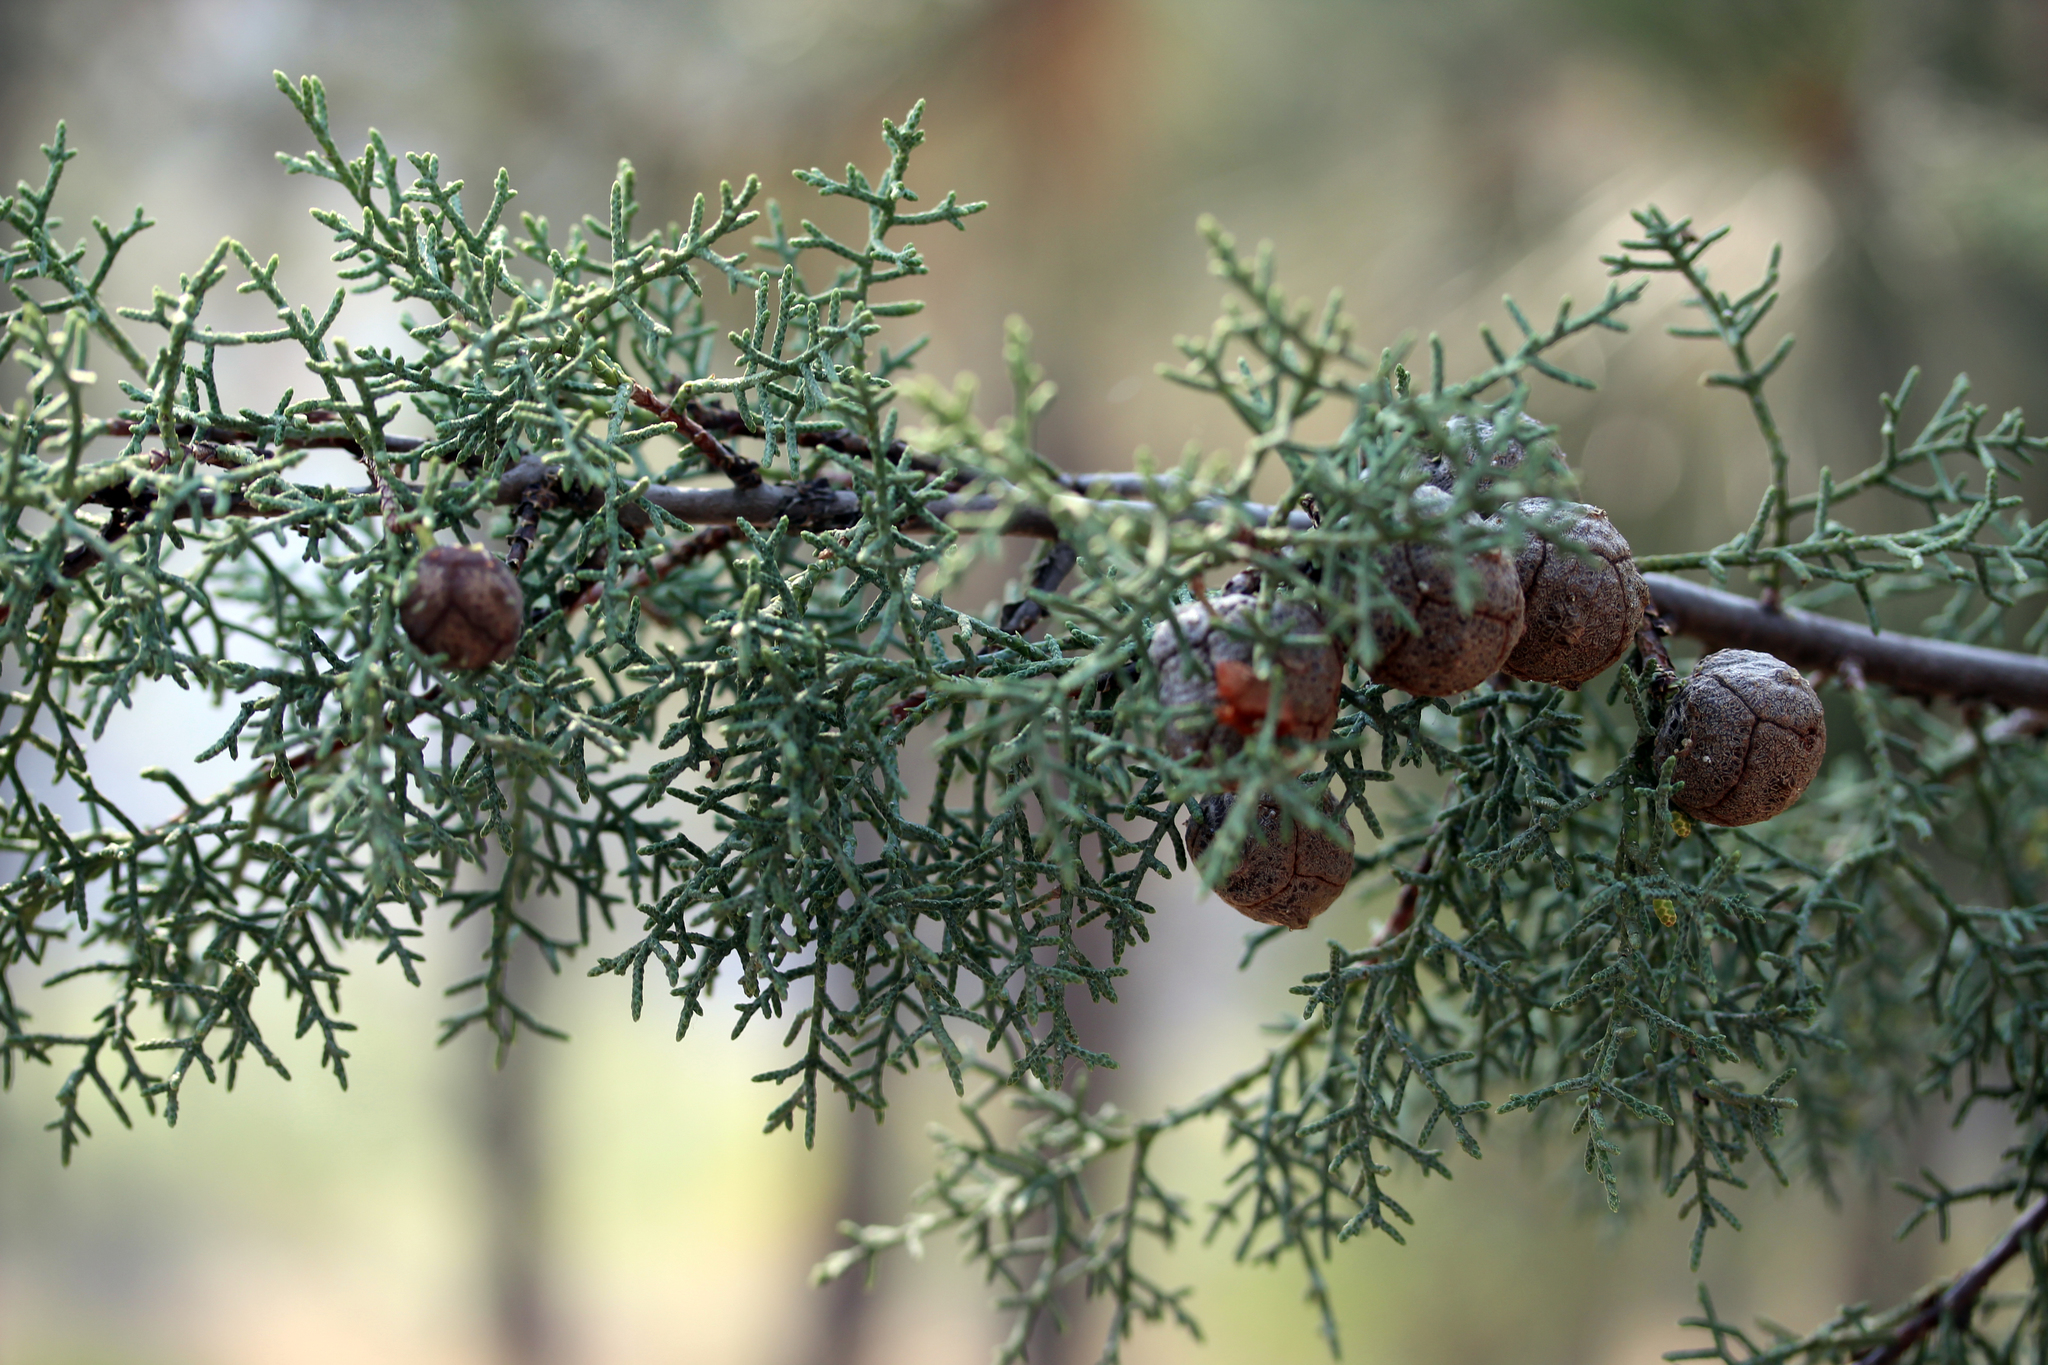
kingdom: Plantae
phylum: Tracheophyta
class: Pinopsida
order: Pinales
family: Cupressaceae
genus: Cupressus
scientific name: Cupressus arizonica
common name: Arizona cypress
